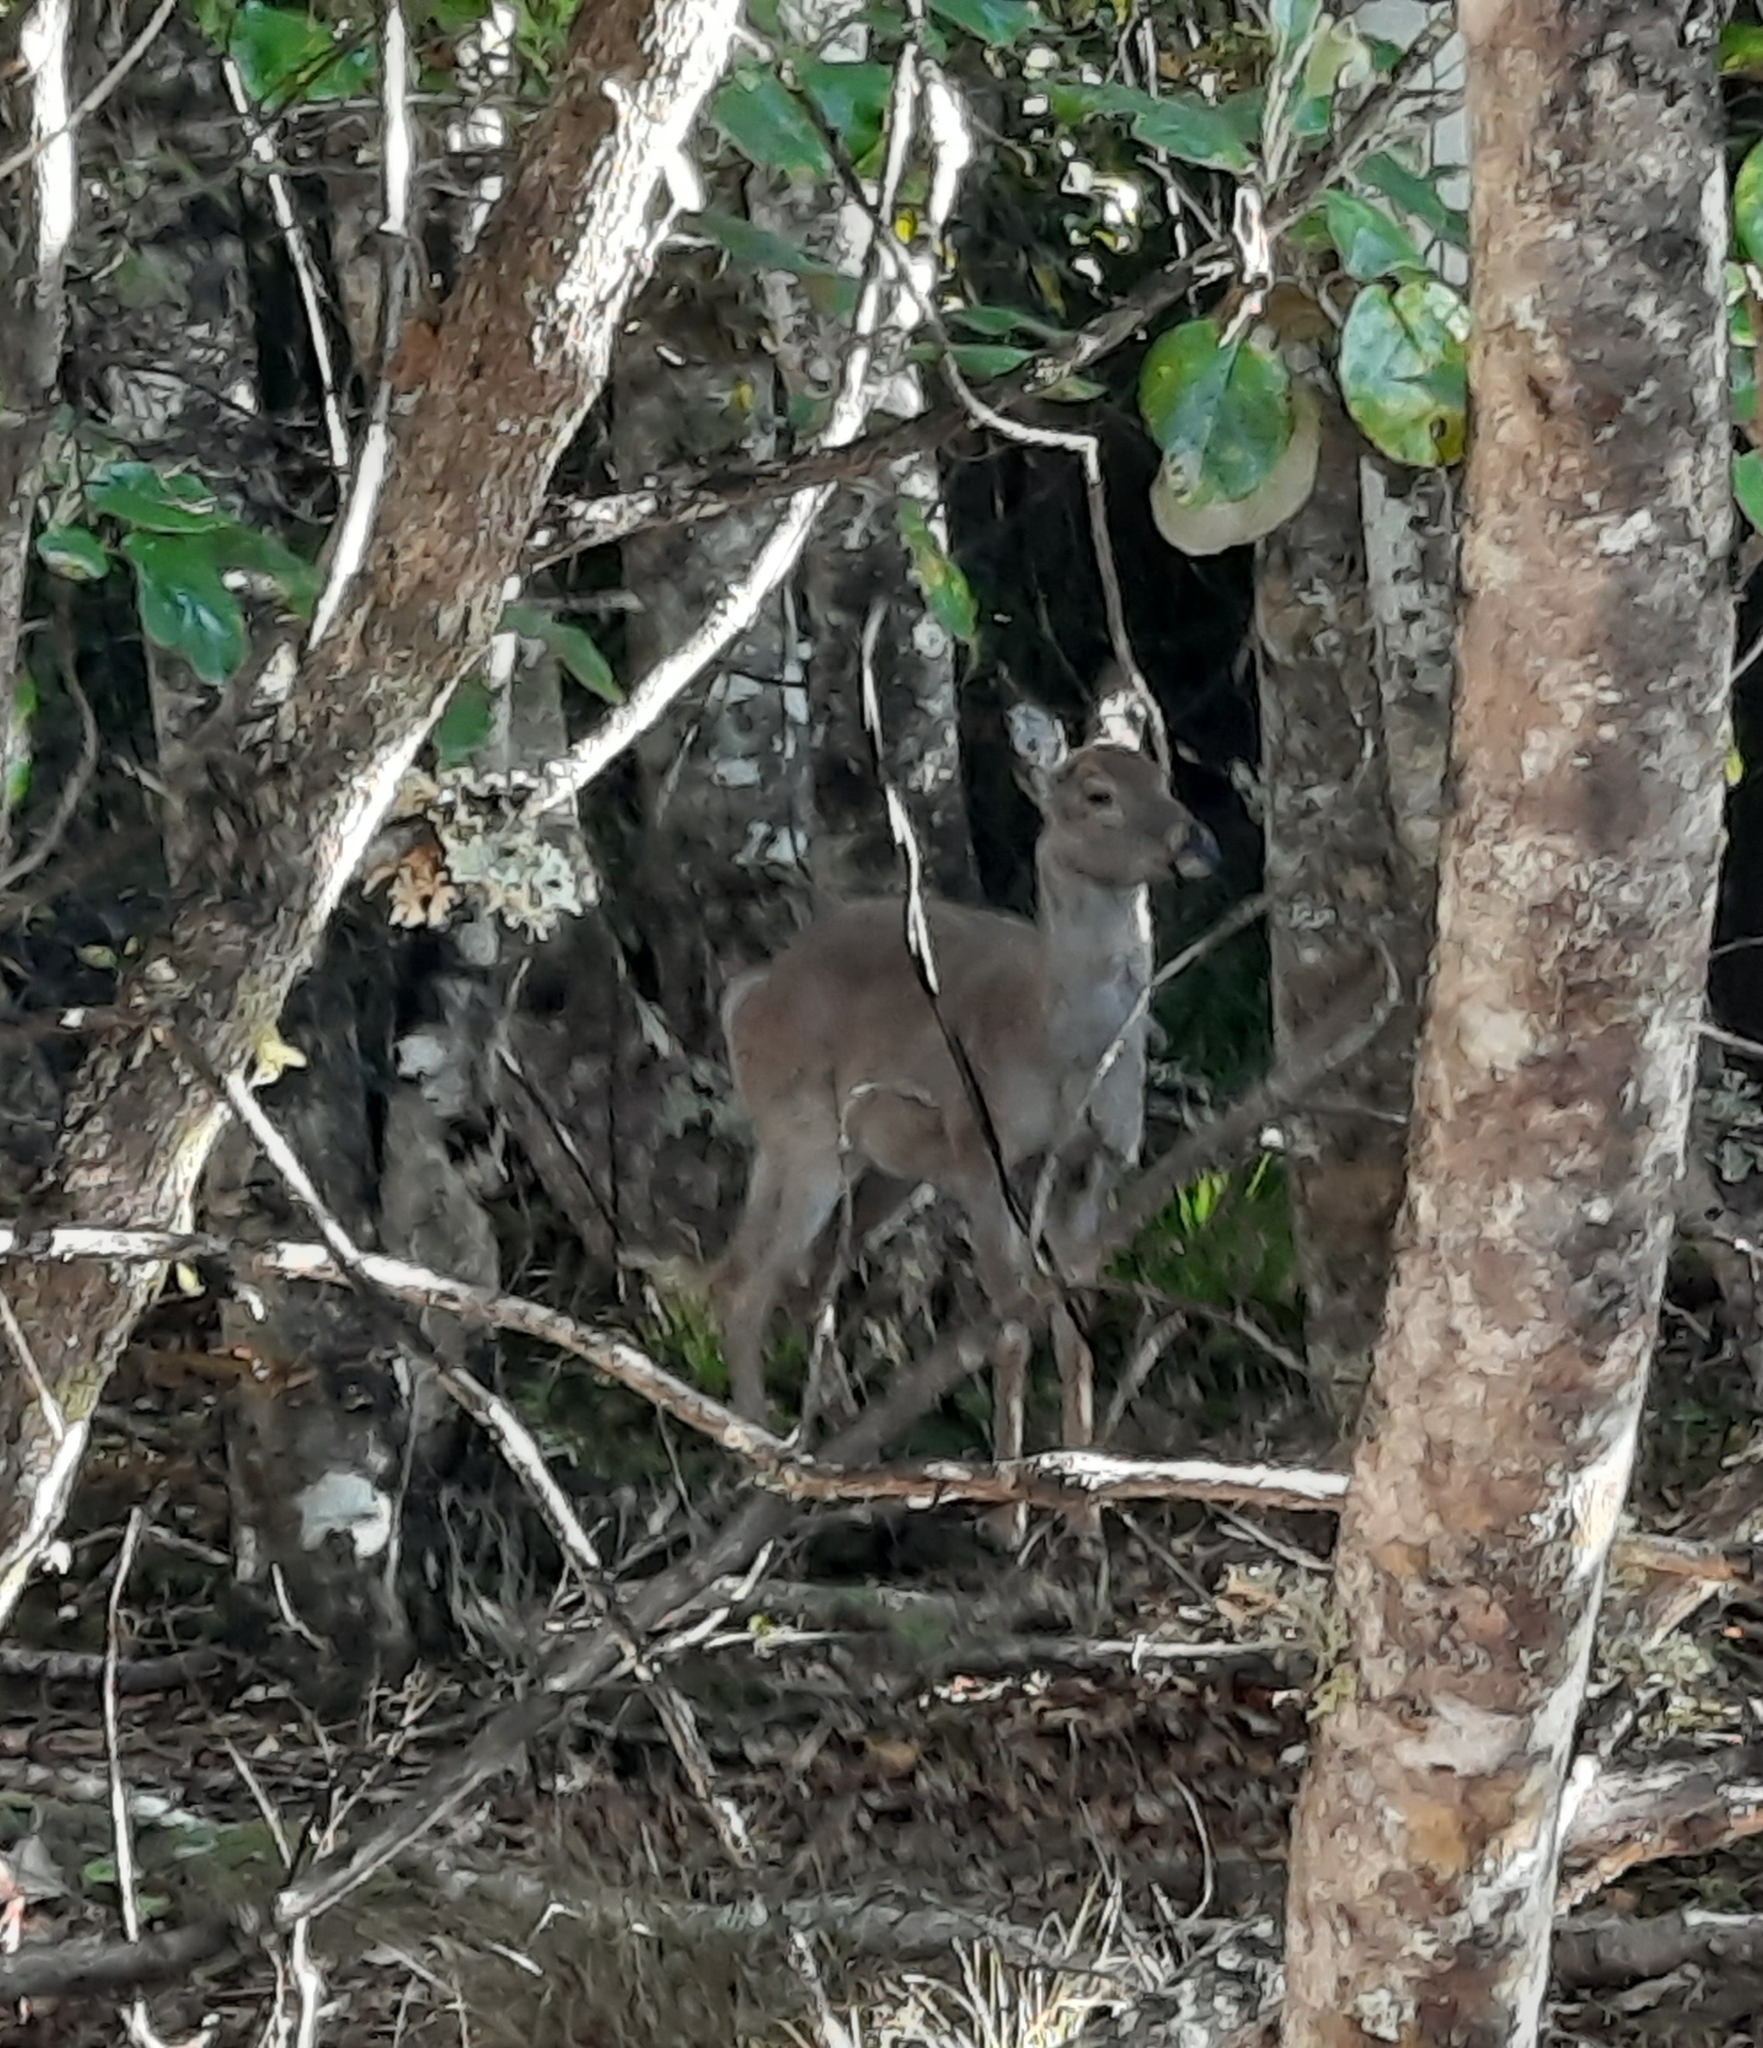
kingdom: Animalia
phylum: Chordata
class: Mammalia
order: Artiodactyla
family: Cervidae
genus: Odocoileus
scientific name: Odocoileus virginianus
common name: White-tailed deer
